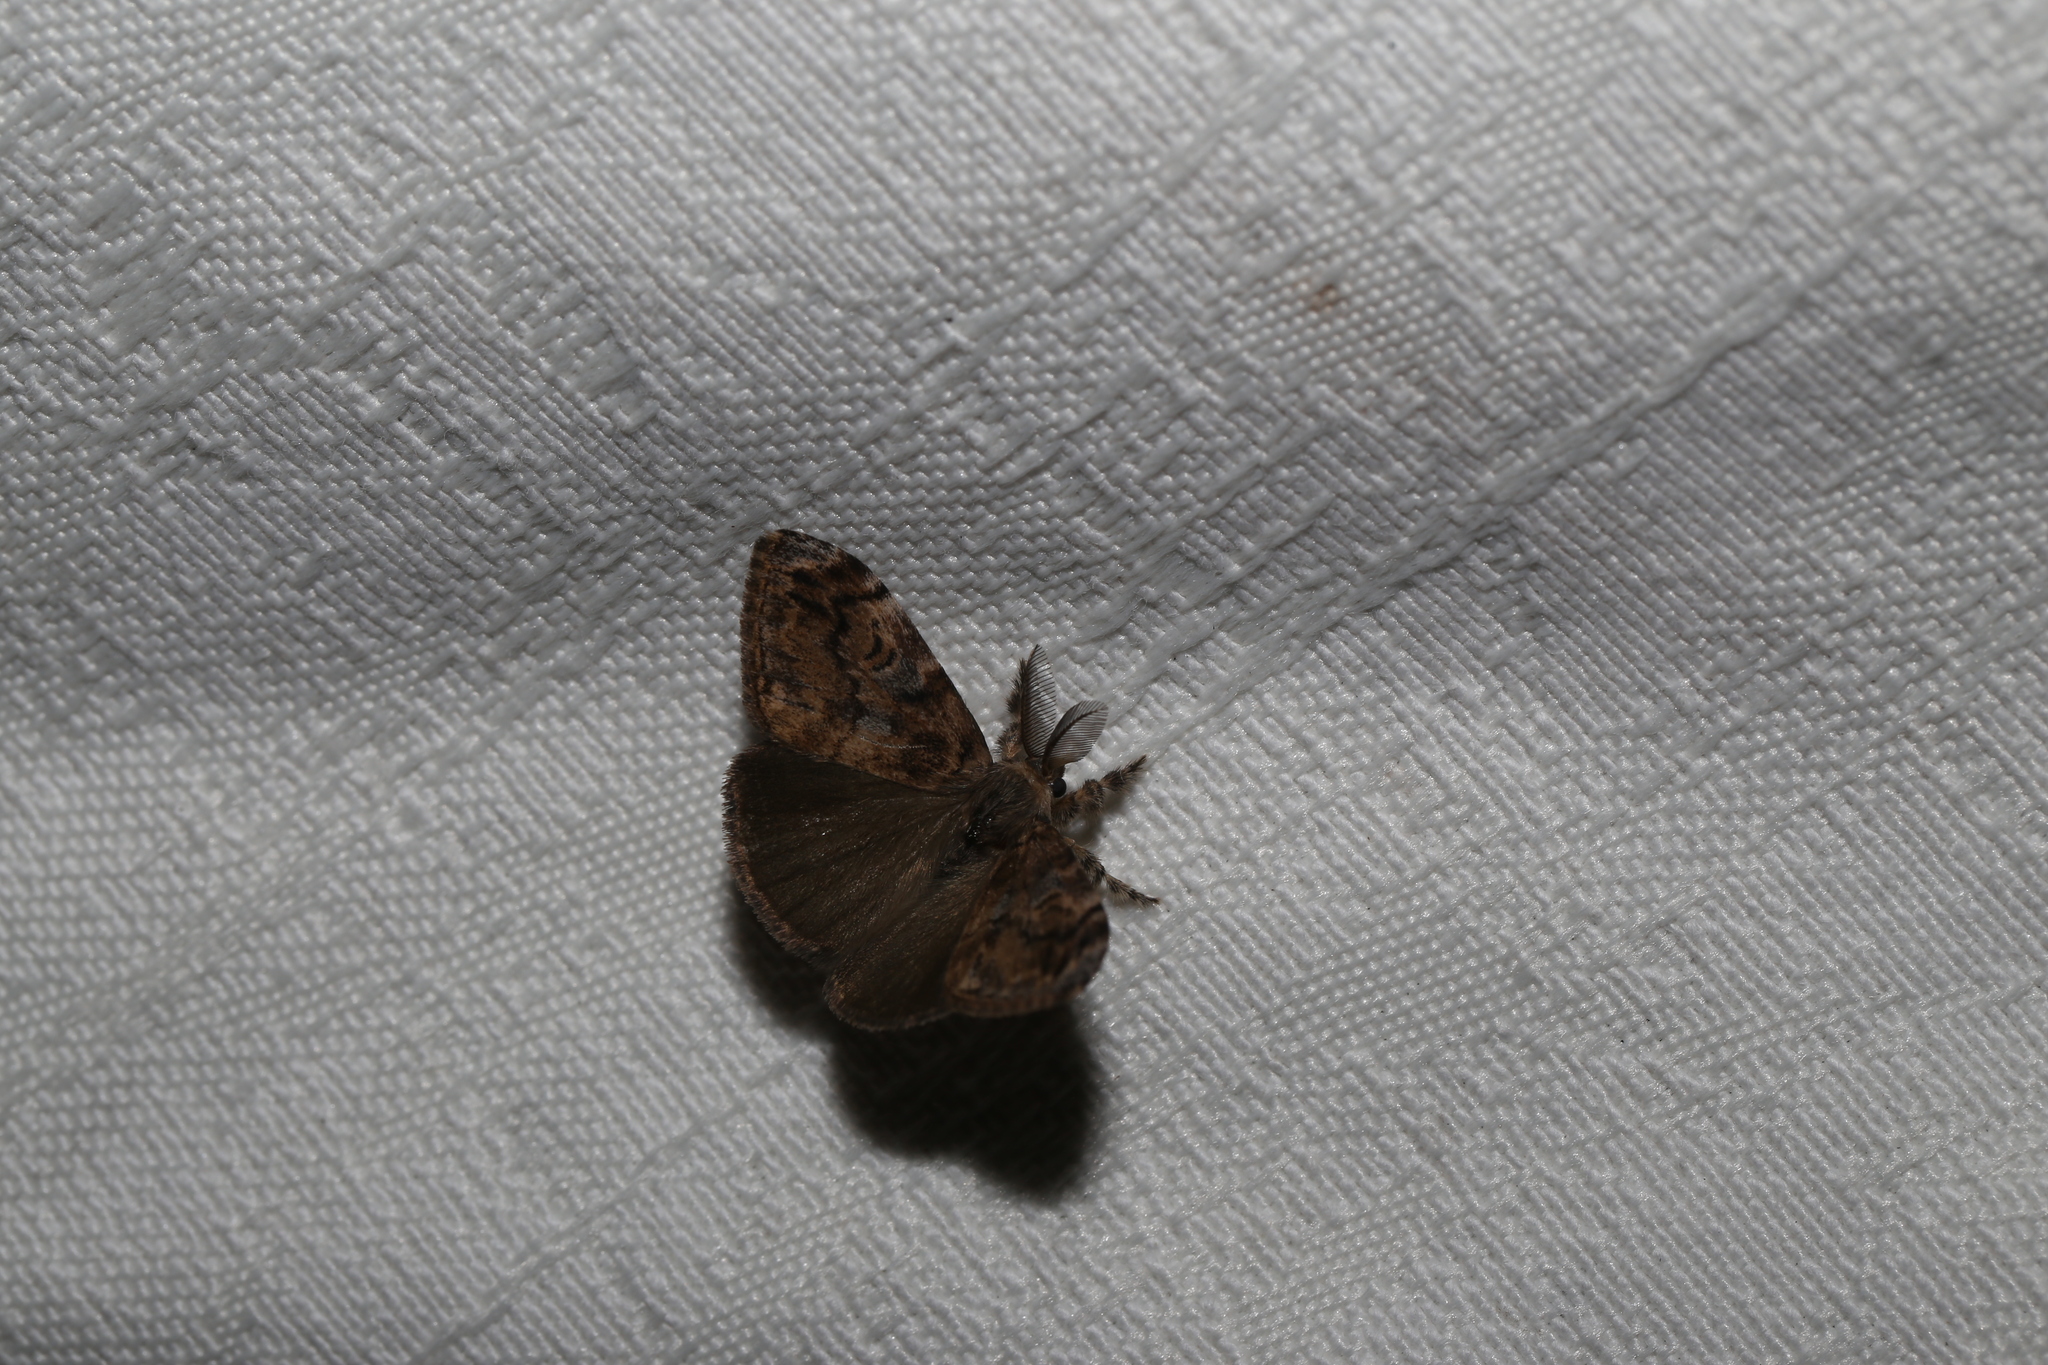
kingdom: Animalia
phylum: Arthropoda
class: Insecta
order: Lepidoptera
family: Erebidae
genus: Orgyia
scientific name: Orgyia australis
